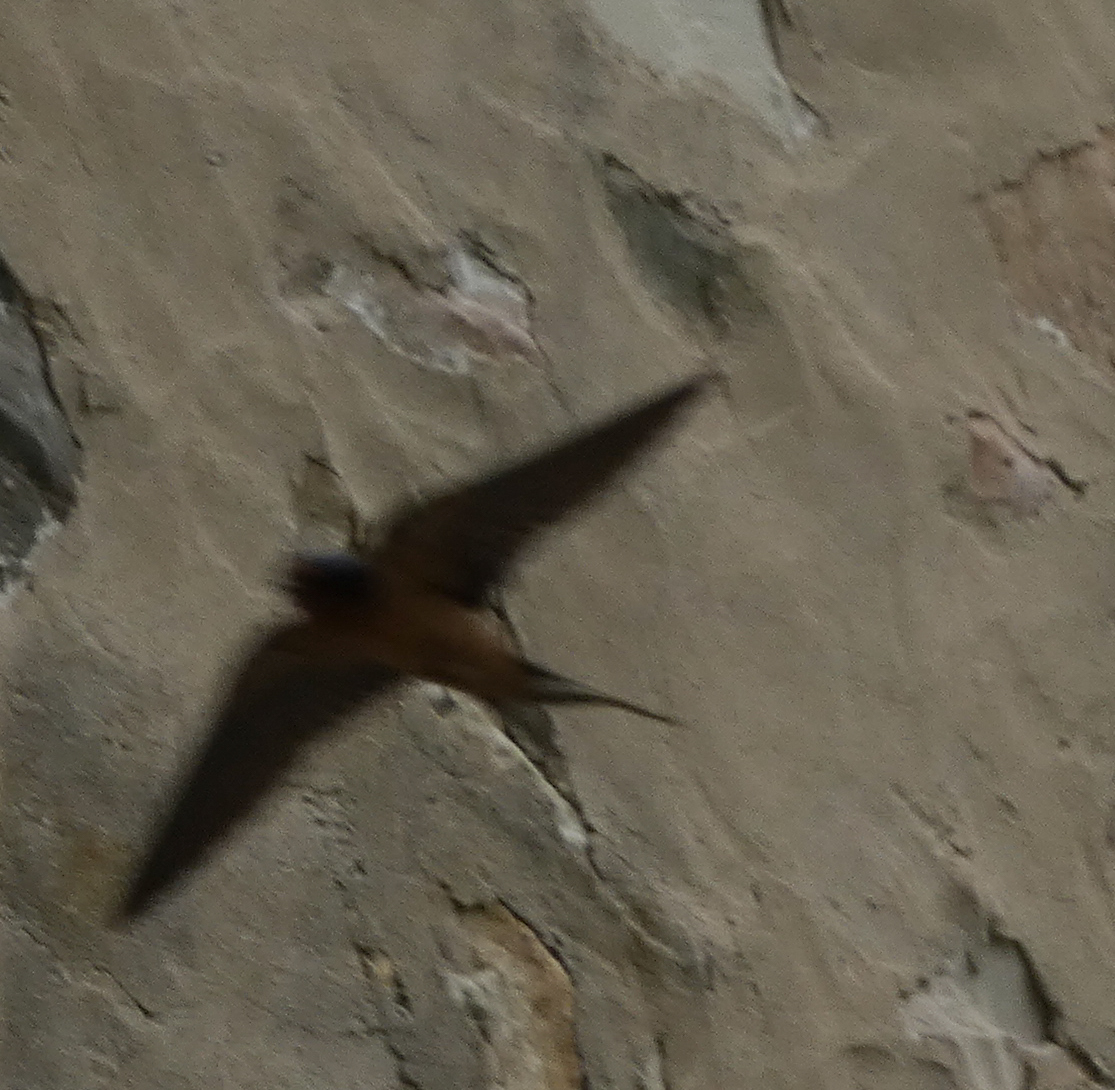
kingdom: Animalia
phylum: Chordata
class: Aves
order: Passeriformes
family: Hirundinidae
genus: Hirundo
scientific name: Hirundo rustica
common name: Barn swallow
